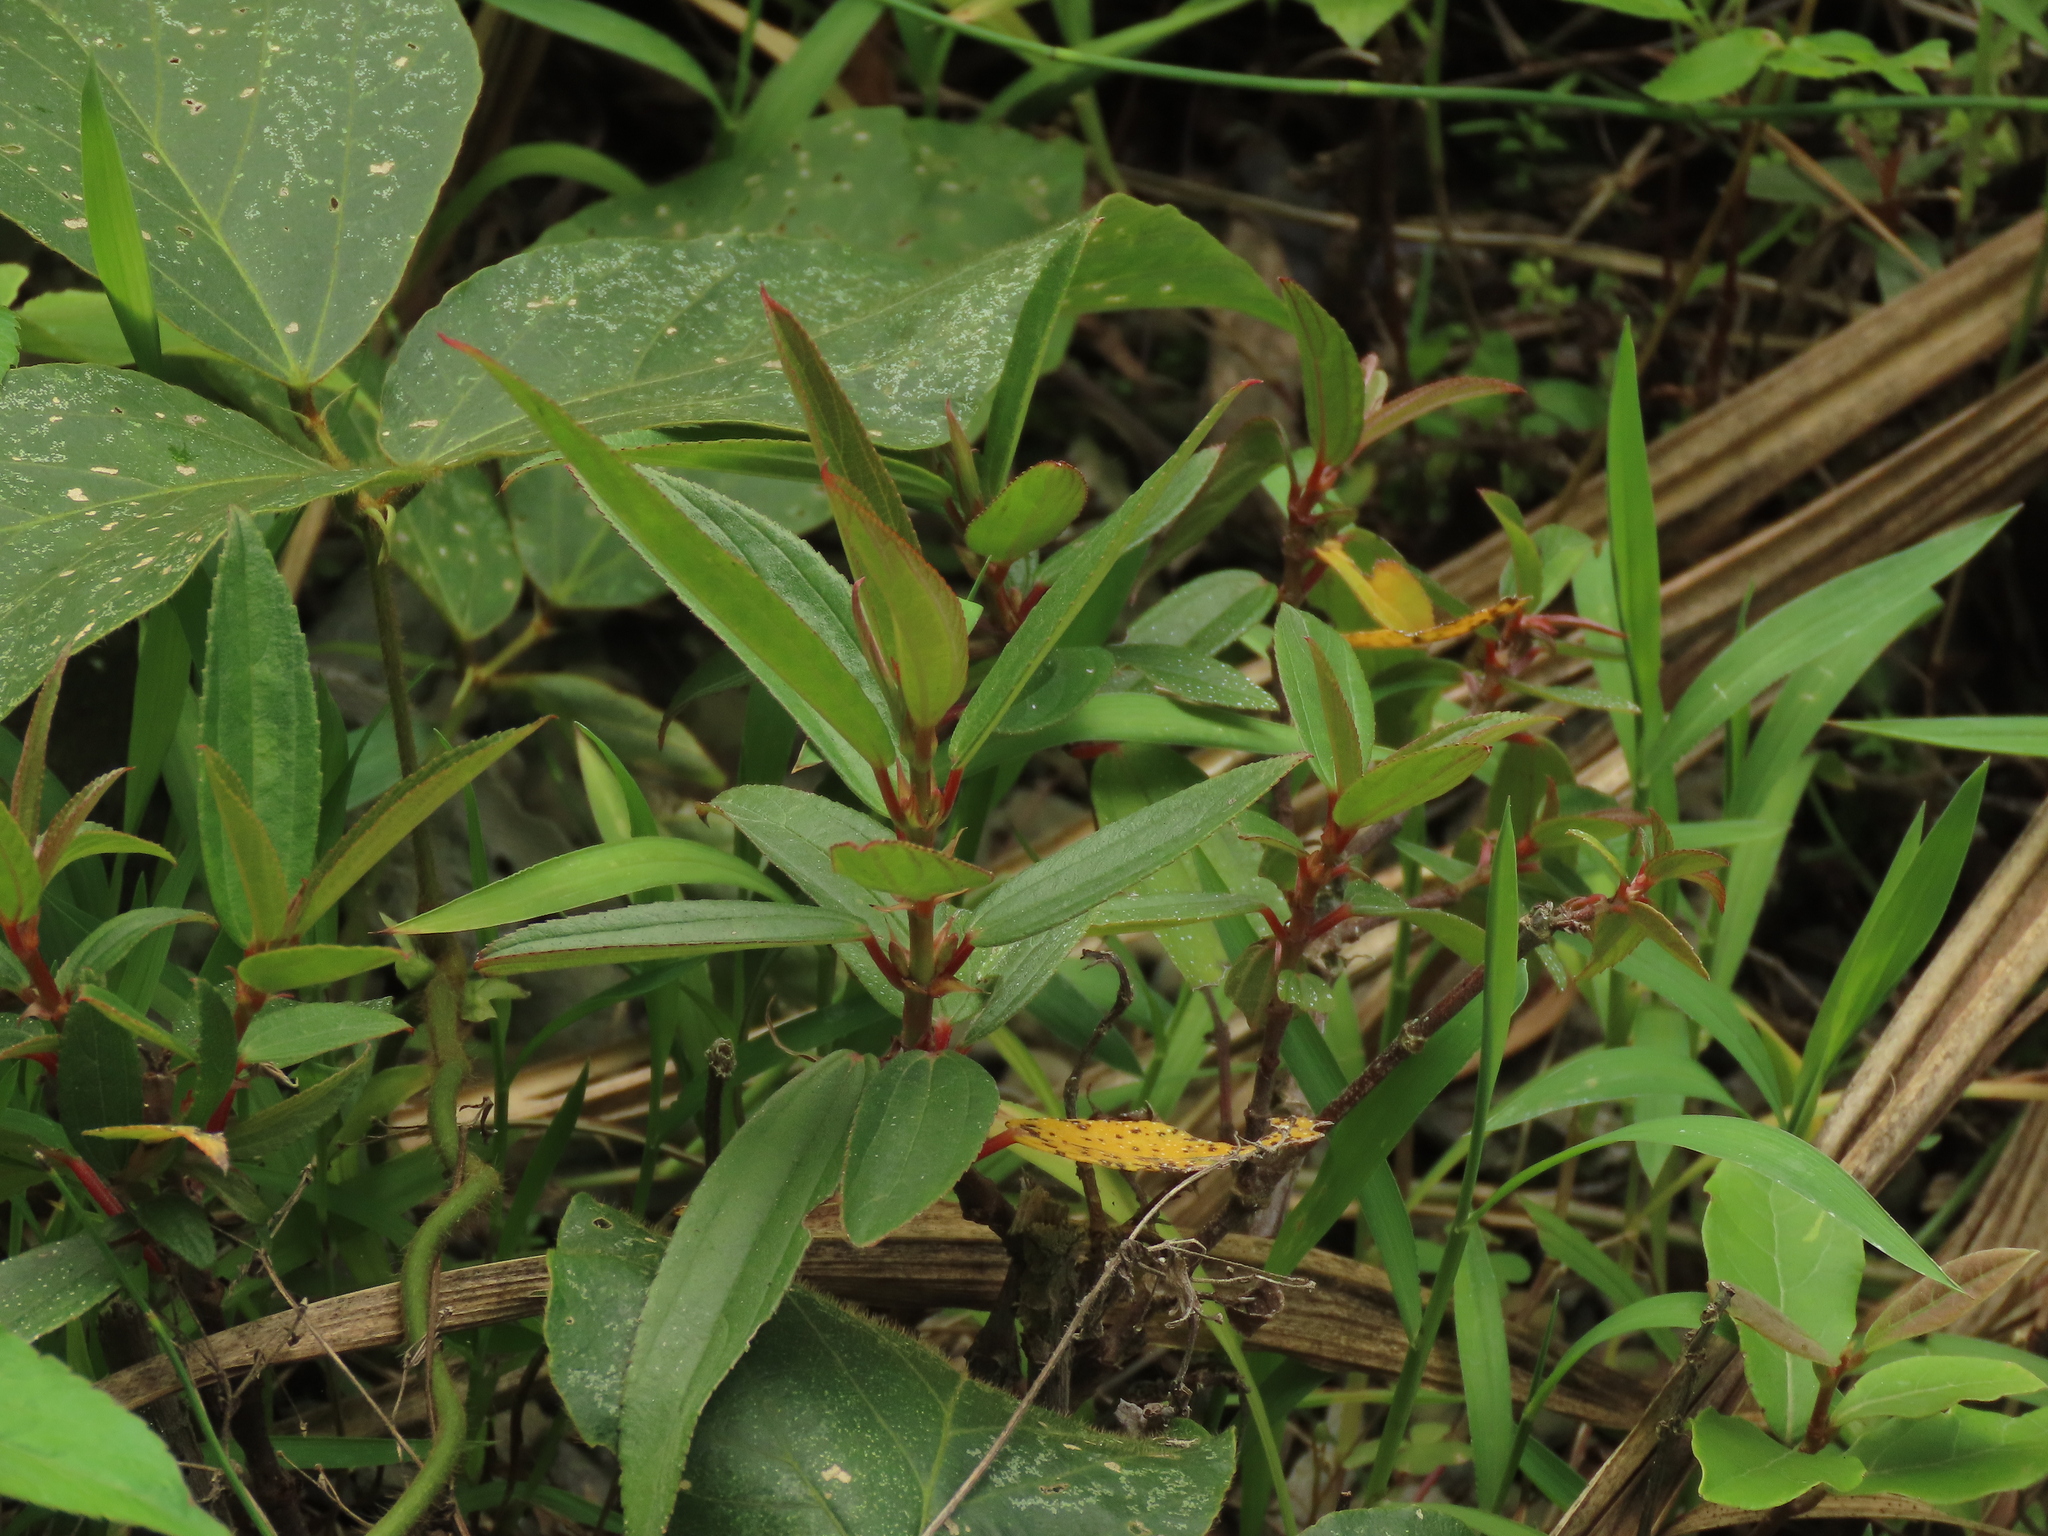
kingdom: Plantae
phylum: Tracheophyta
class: Magnoliopsida
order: Rosales
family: Urticaceae
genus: Boehmeria
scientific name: Boehmeria densiflora
